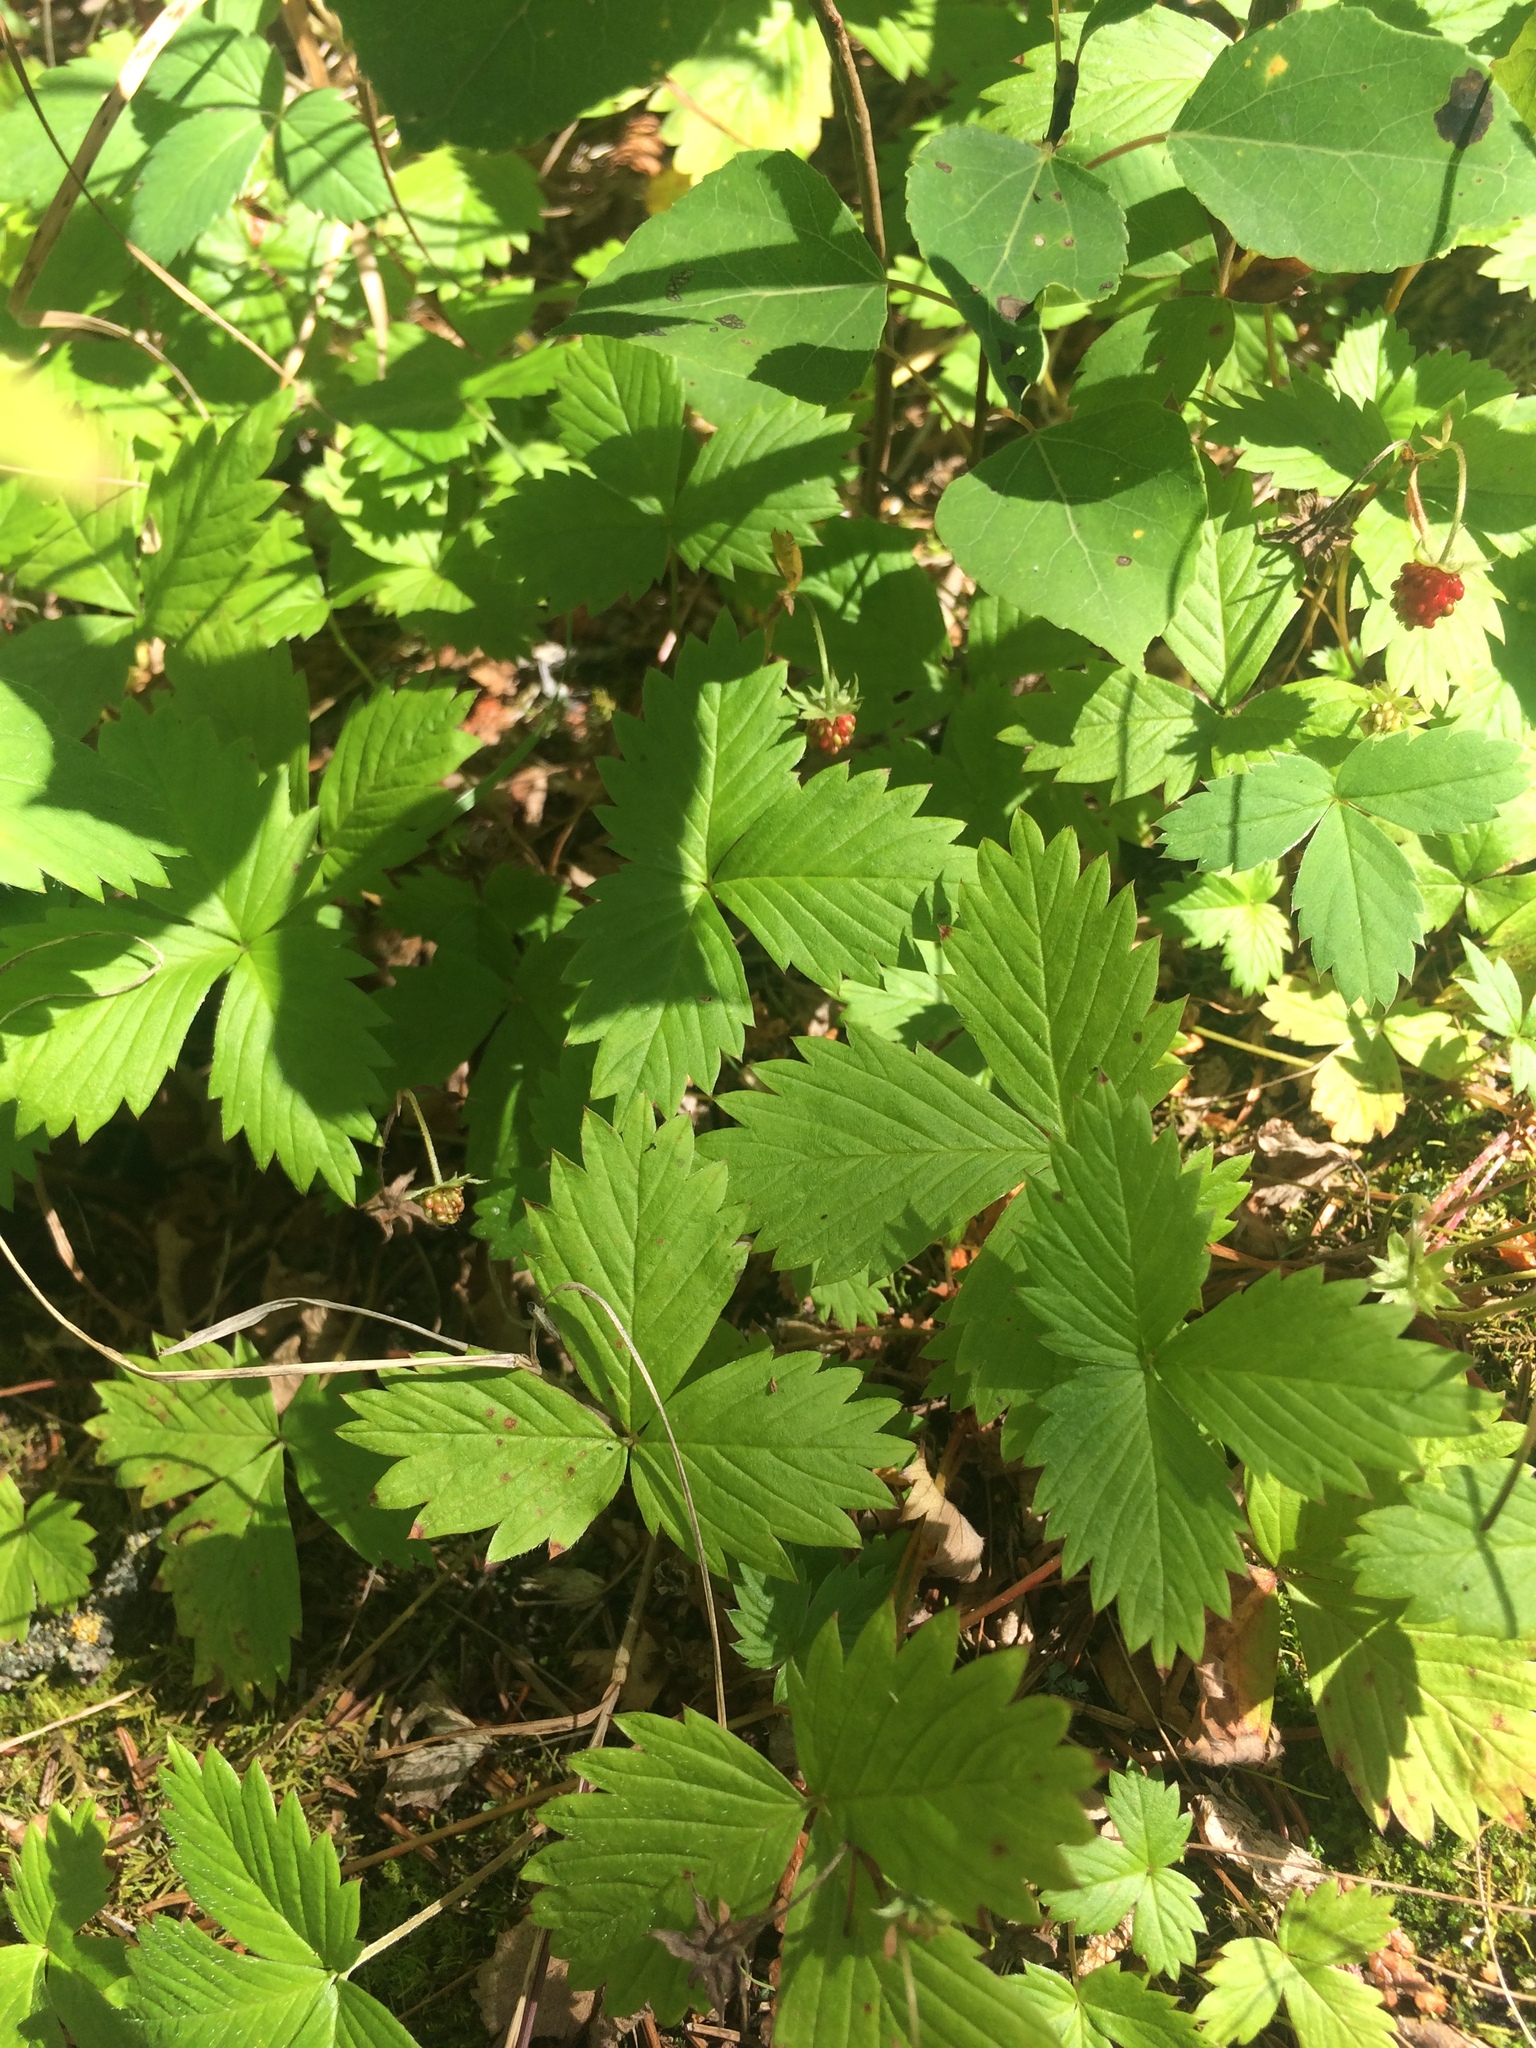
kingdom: Plantae
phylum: Tracheophyta
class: Magnoliopsida
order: Rosales
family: Rosaceae
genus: Fragaria
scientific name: Fragaria vesca
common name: Wild strawberry
